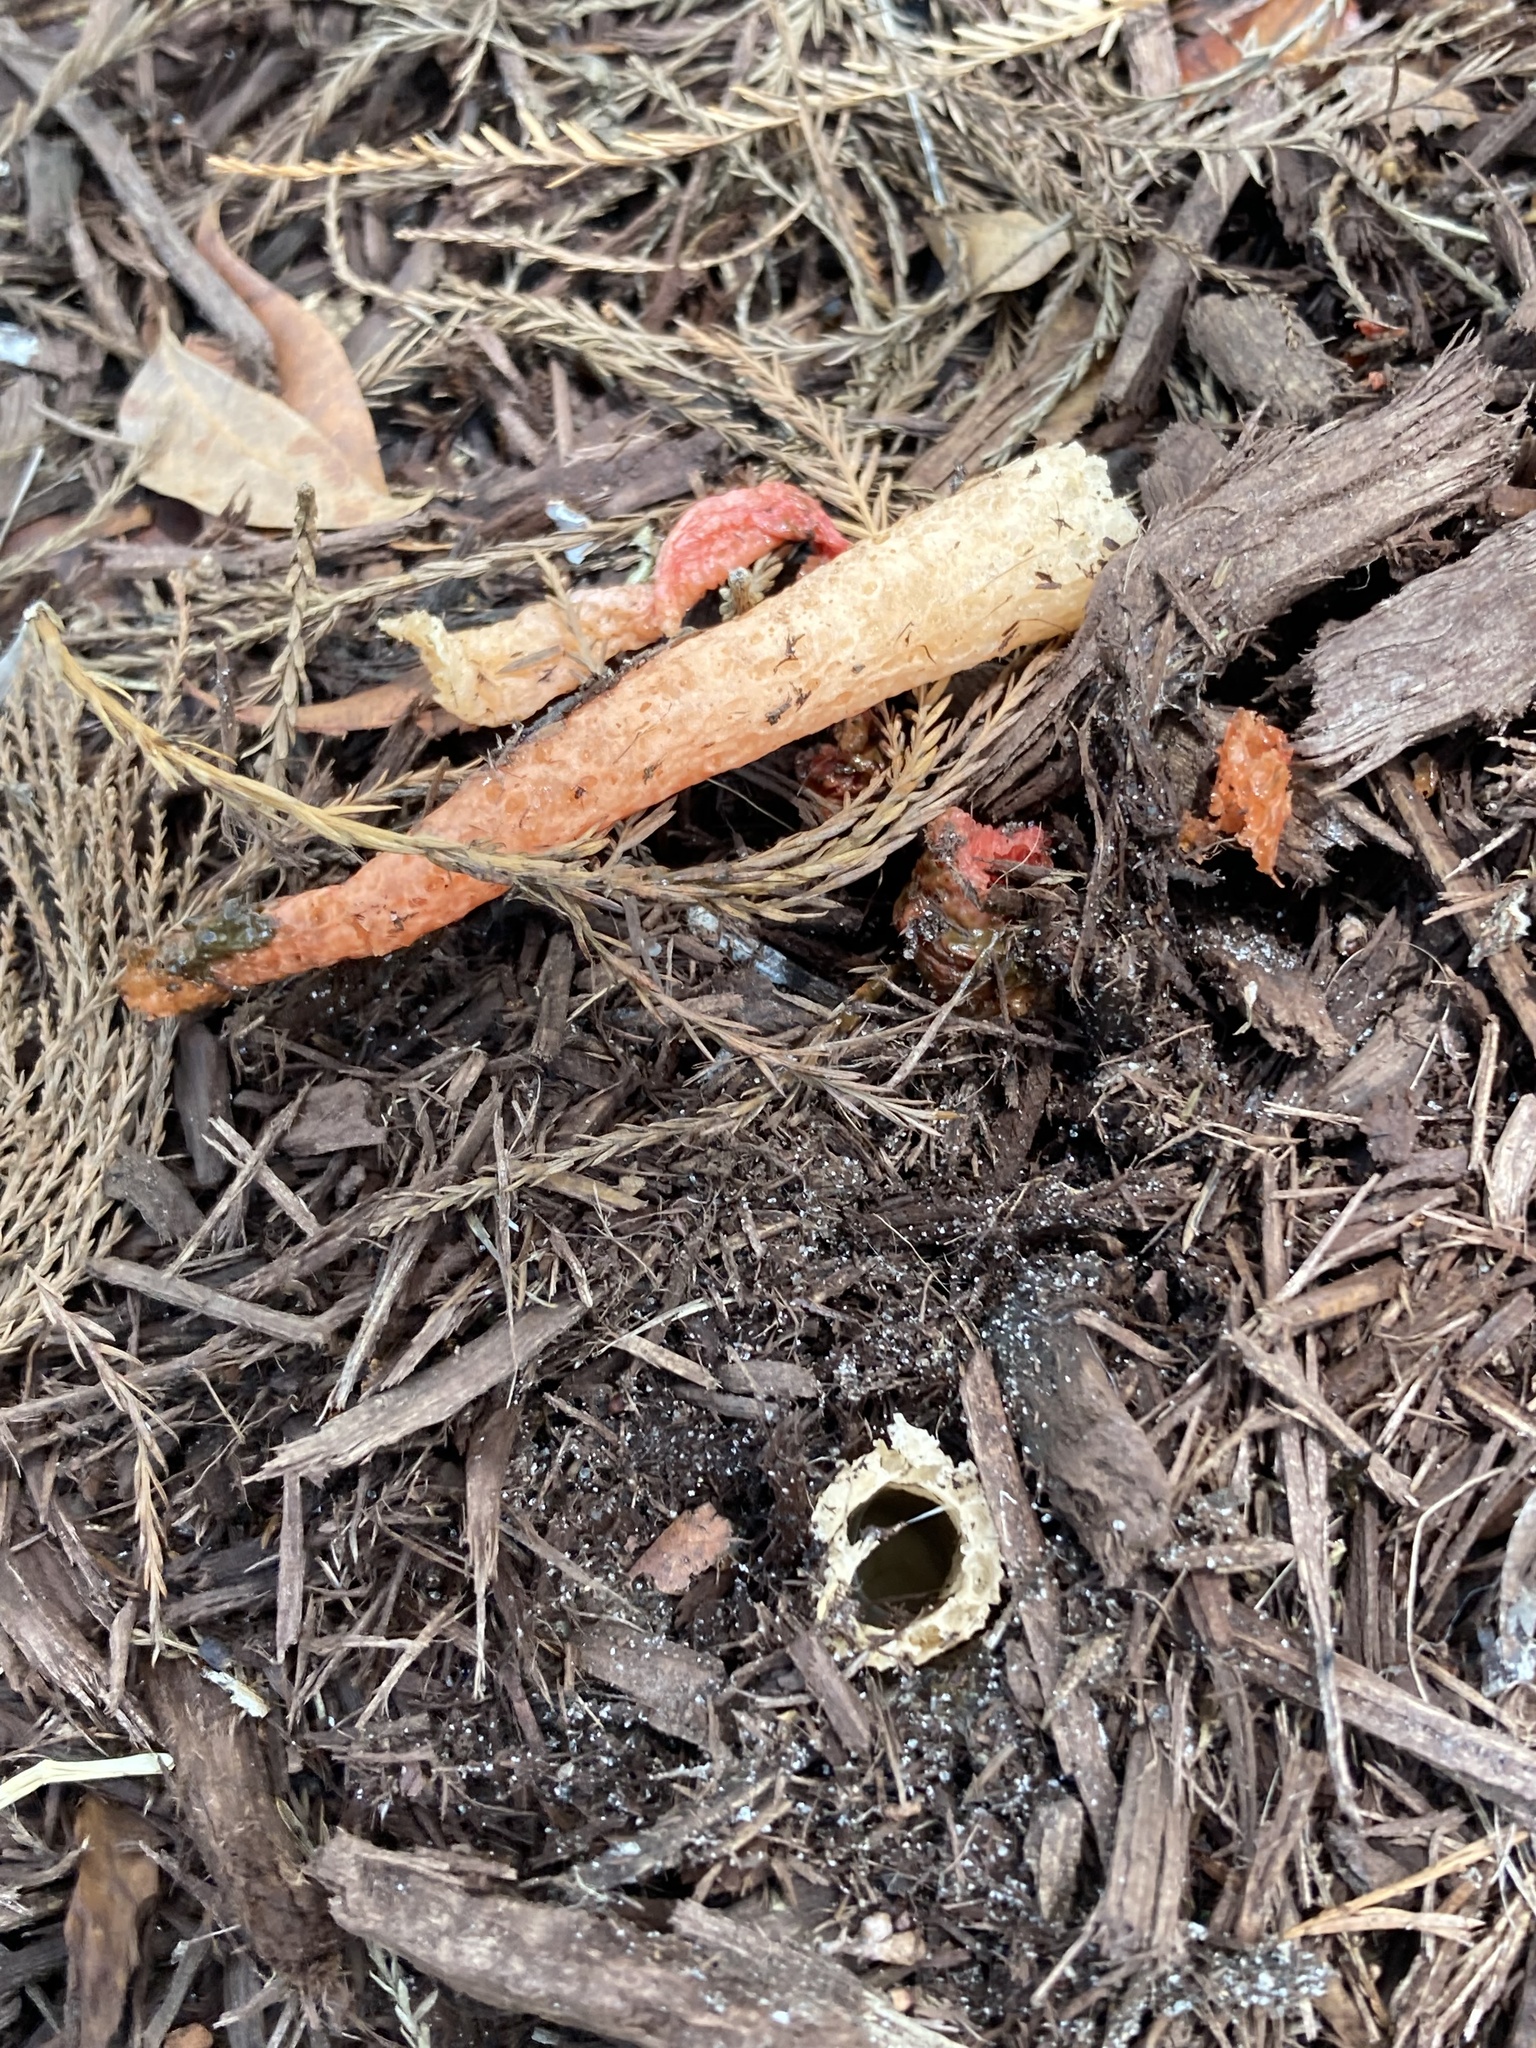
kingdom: Fungi
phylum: Basidiomycota
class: Agaricomycetes
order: Phallales
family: Phallaceae
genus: Phallus
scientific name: Phallus rugulosus
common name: Wrinkly stinkhorn
